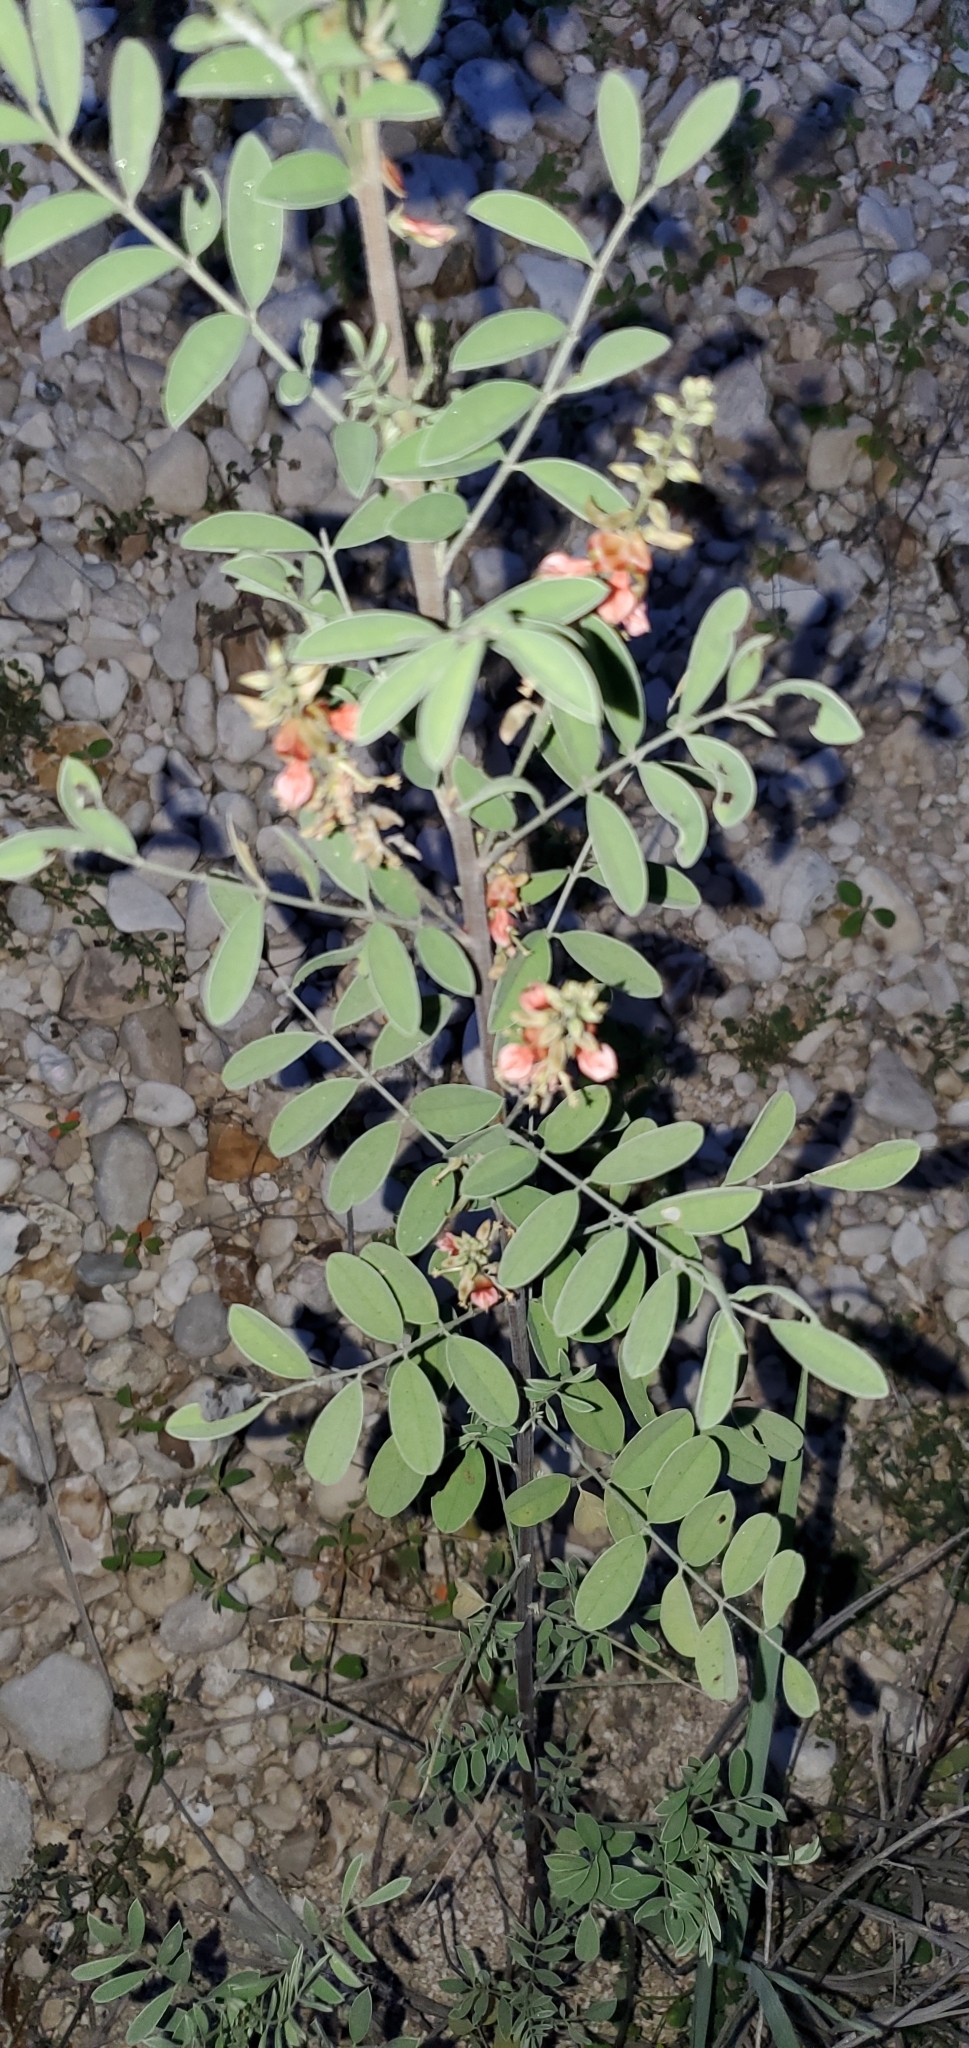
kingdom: Plantae
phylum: Tracheophyta
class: Magnoliopsida
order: Fabales
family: Fabaceae
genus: Indigofera
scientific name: Indigofera lindheimeriana
